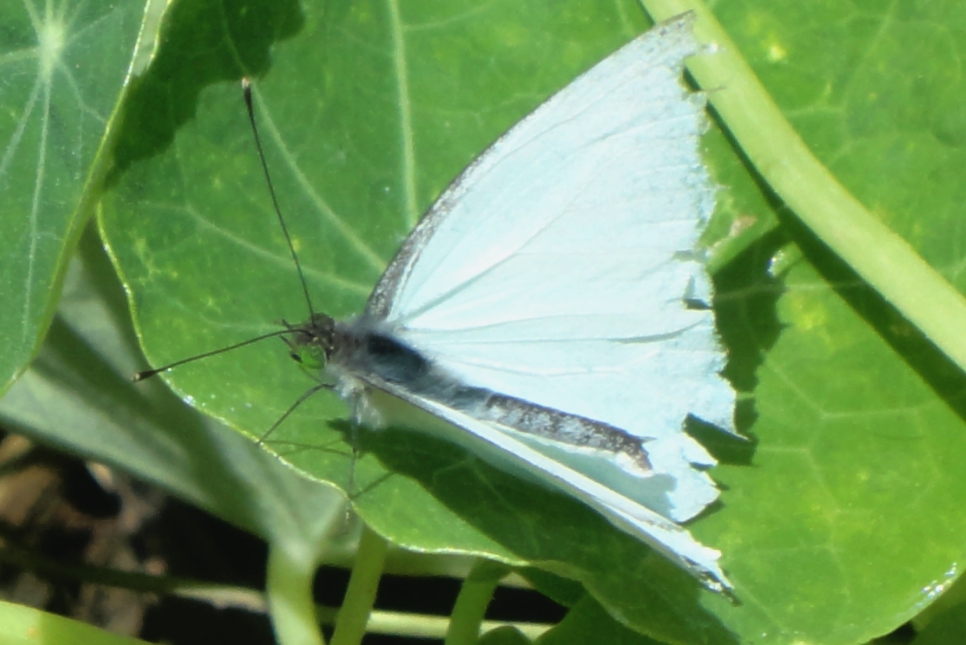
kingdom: Animalia
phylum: Arthropoda
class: Insecta
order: Lepidoptera
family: Pieridae
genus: Leptophobia
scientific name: Leptophobia aripa
